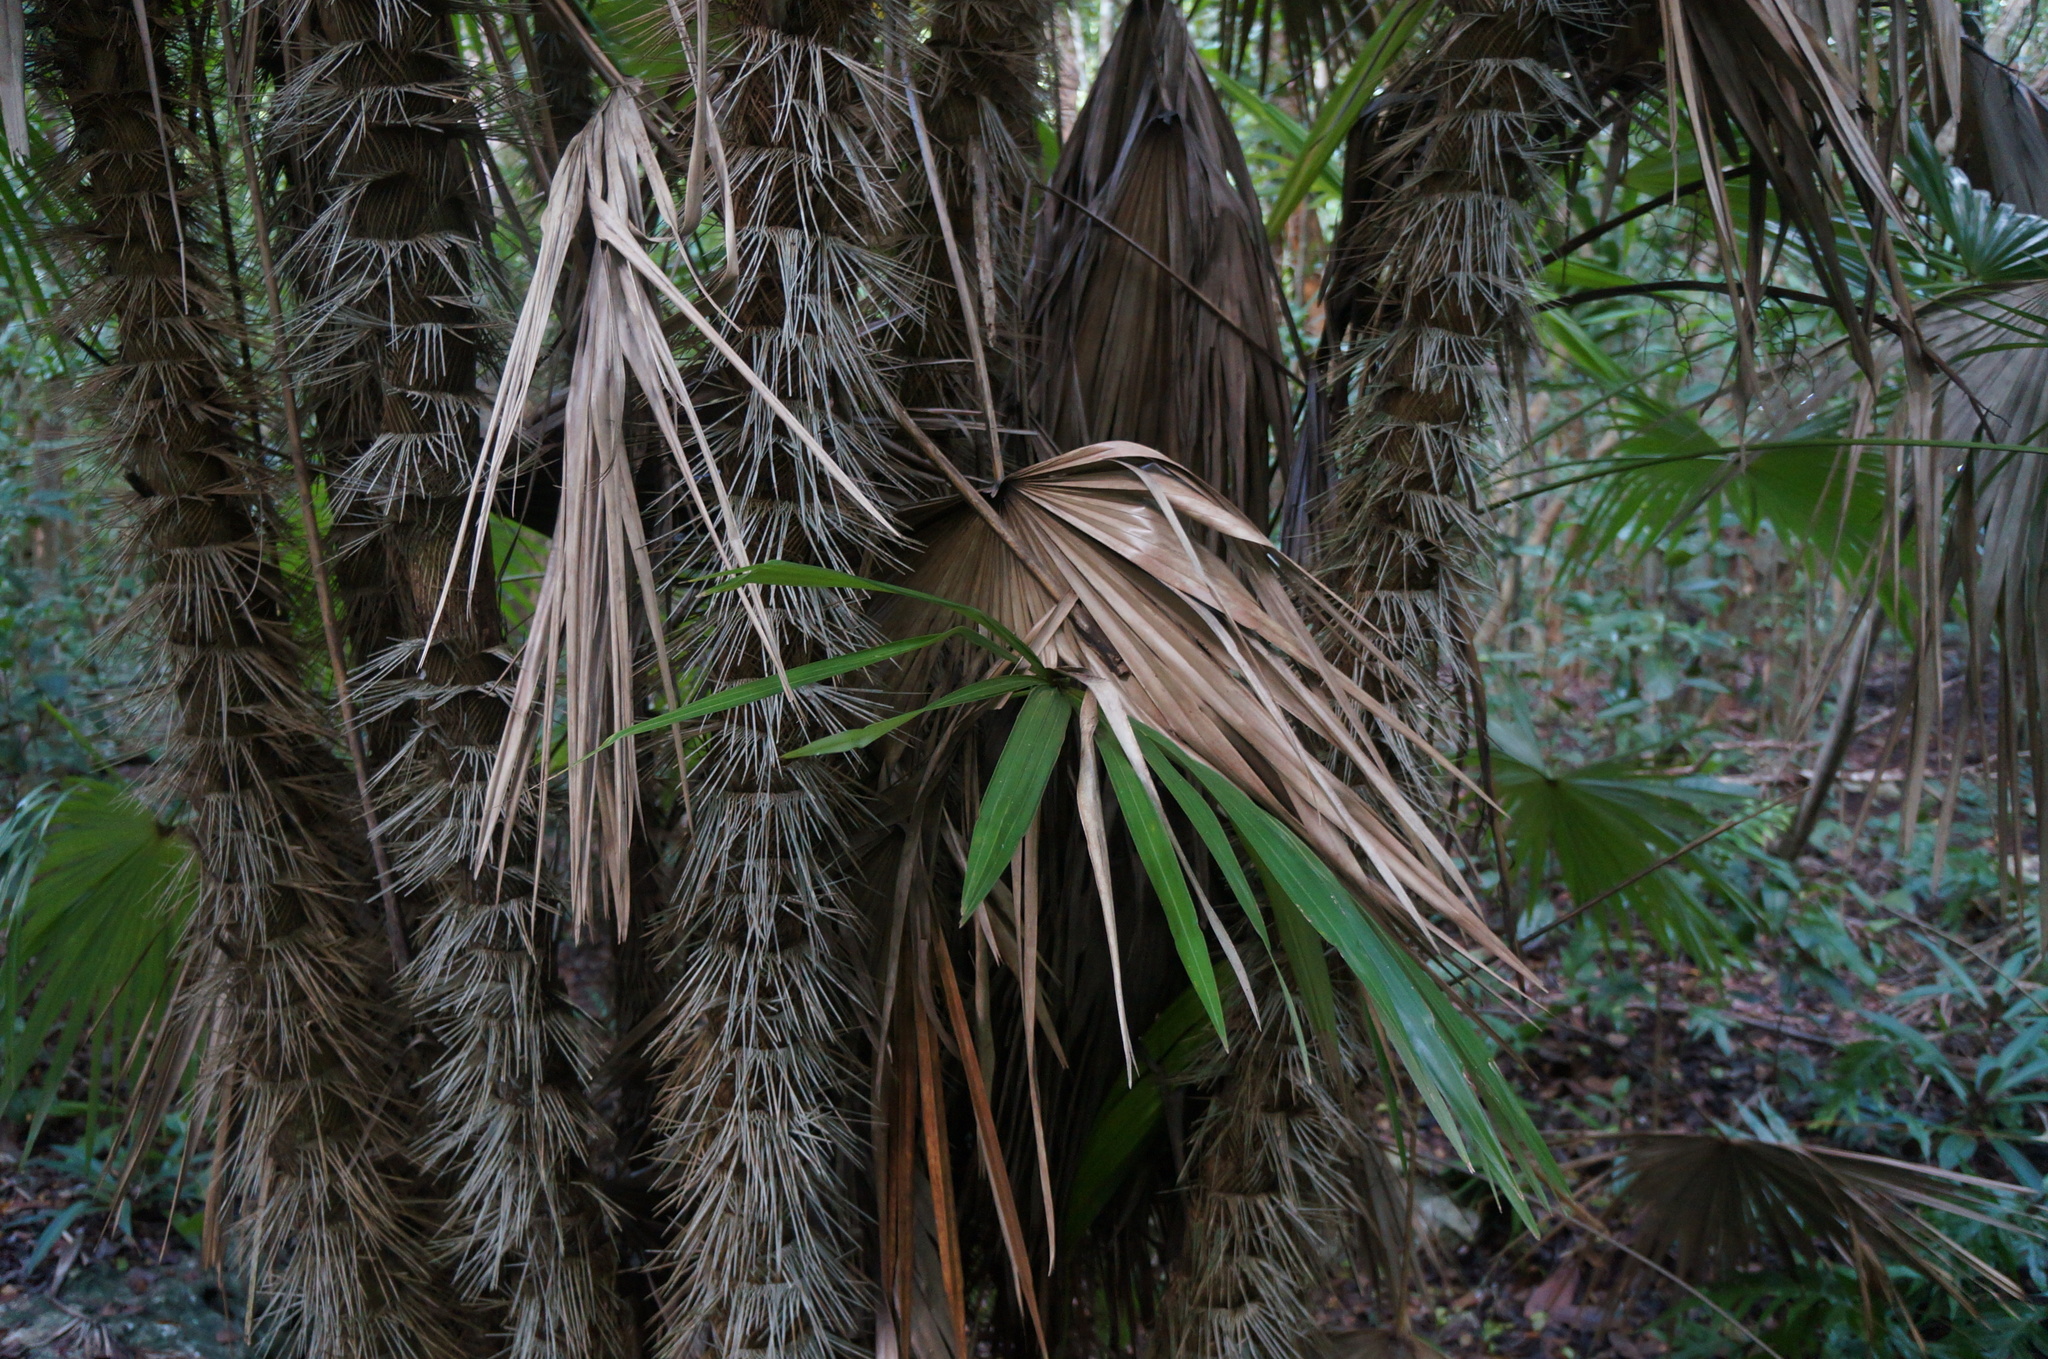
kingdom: Plantae
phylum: Tracheophyta
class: Liliopsida
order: Arecales
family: Arecaceae
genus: Zombia
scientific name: Zombia antillarum
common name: Zombie palm
